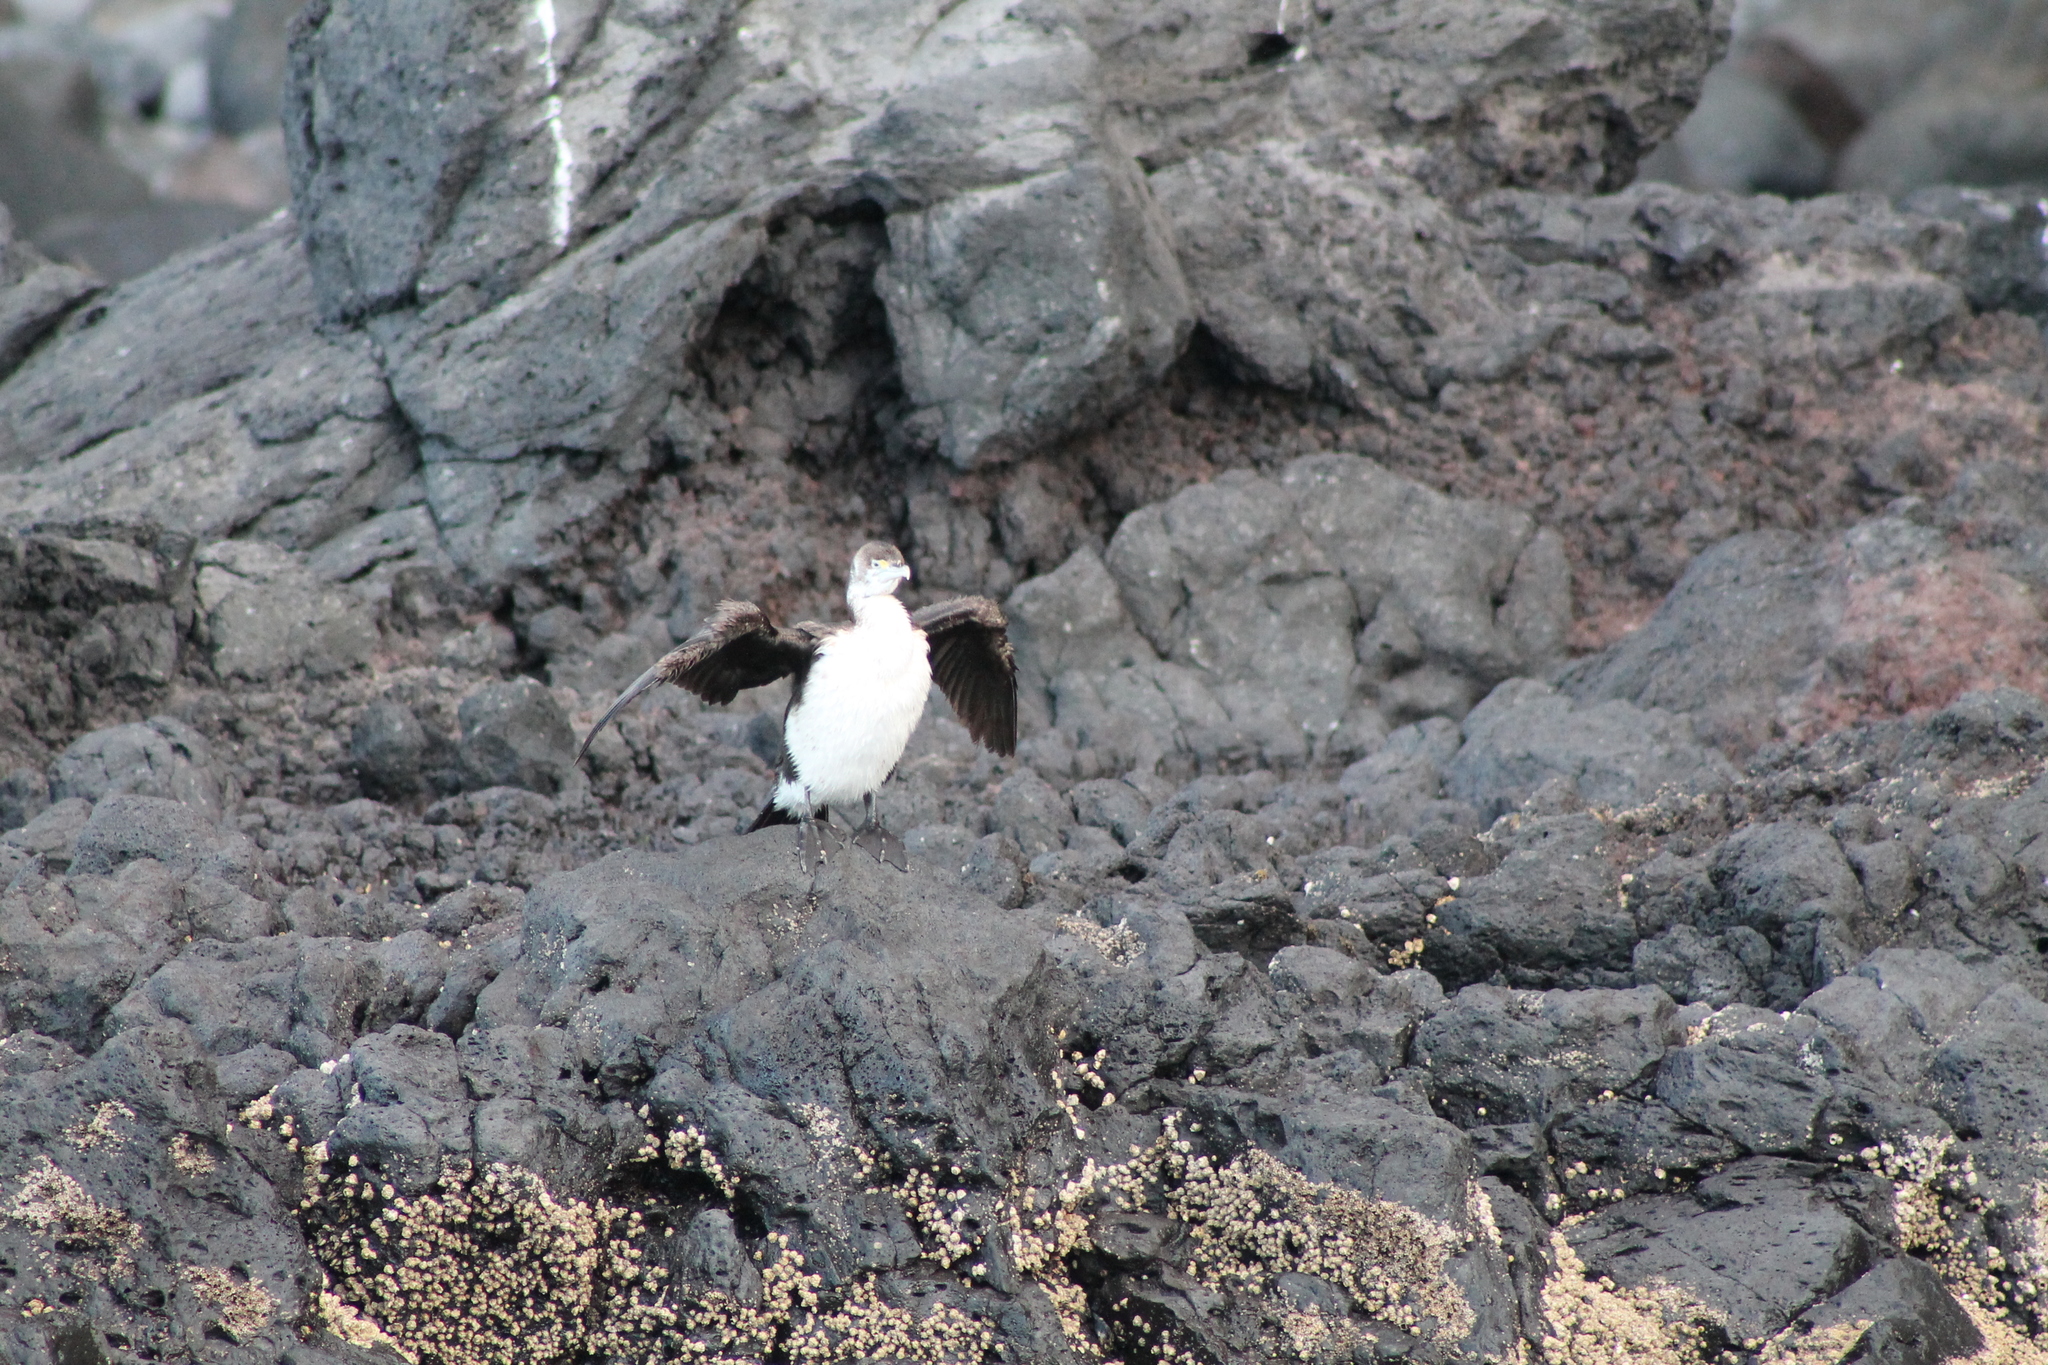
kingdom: Animalia
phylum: Chordata
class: Aves
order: Suliformes
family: Phalacrocoracidae
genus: Phalacrocorax
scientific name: Phalacrocorax varius
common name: Pied cormorant
